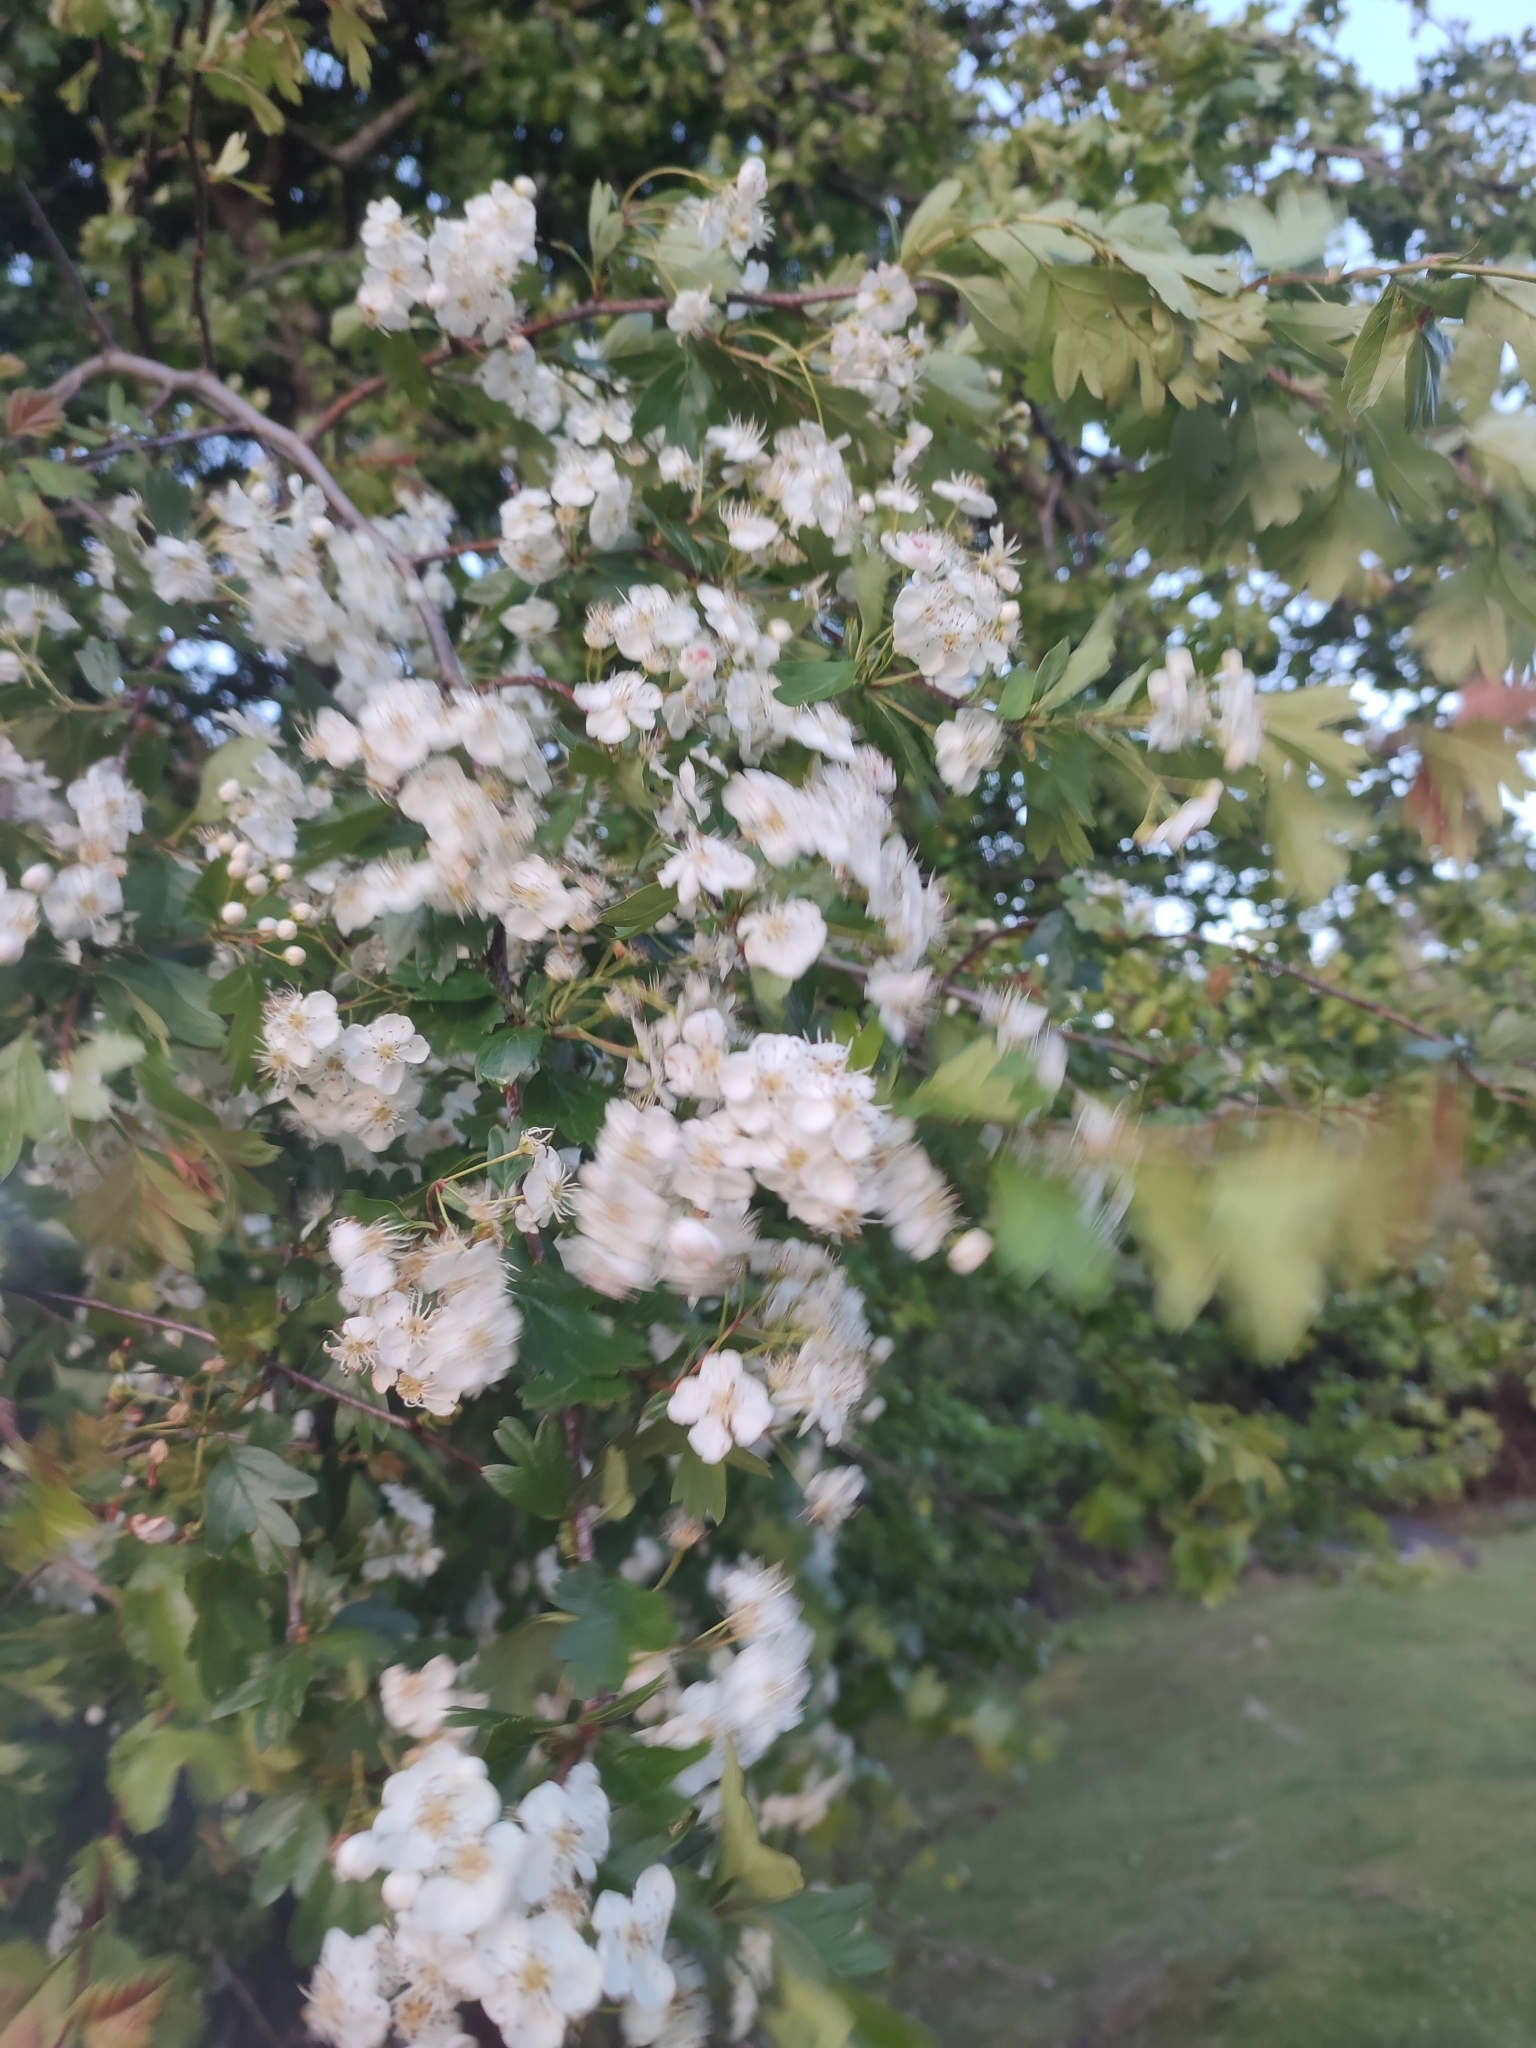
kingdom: Plantae
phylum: Tracheophyta
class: Magnoliopsida
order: Rosales
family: Rosaceae
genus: Crataegus
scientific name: Crataegus monogyna
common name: Hawthorn
